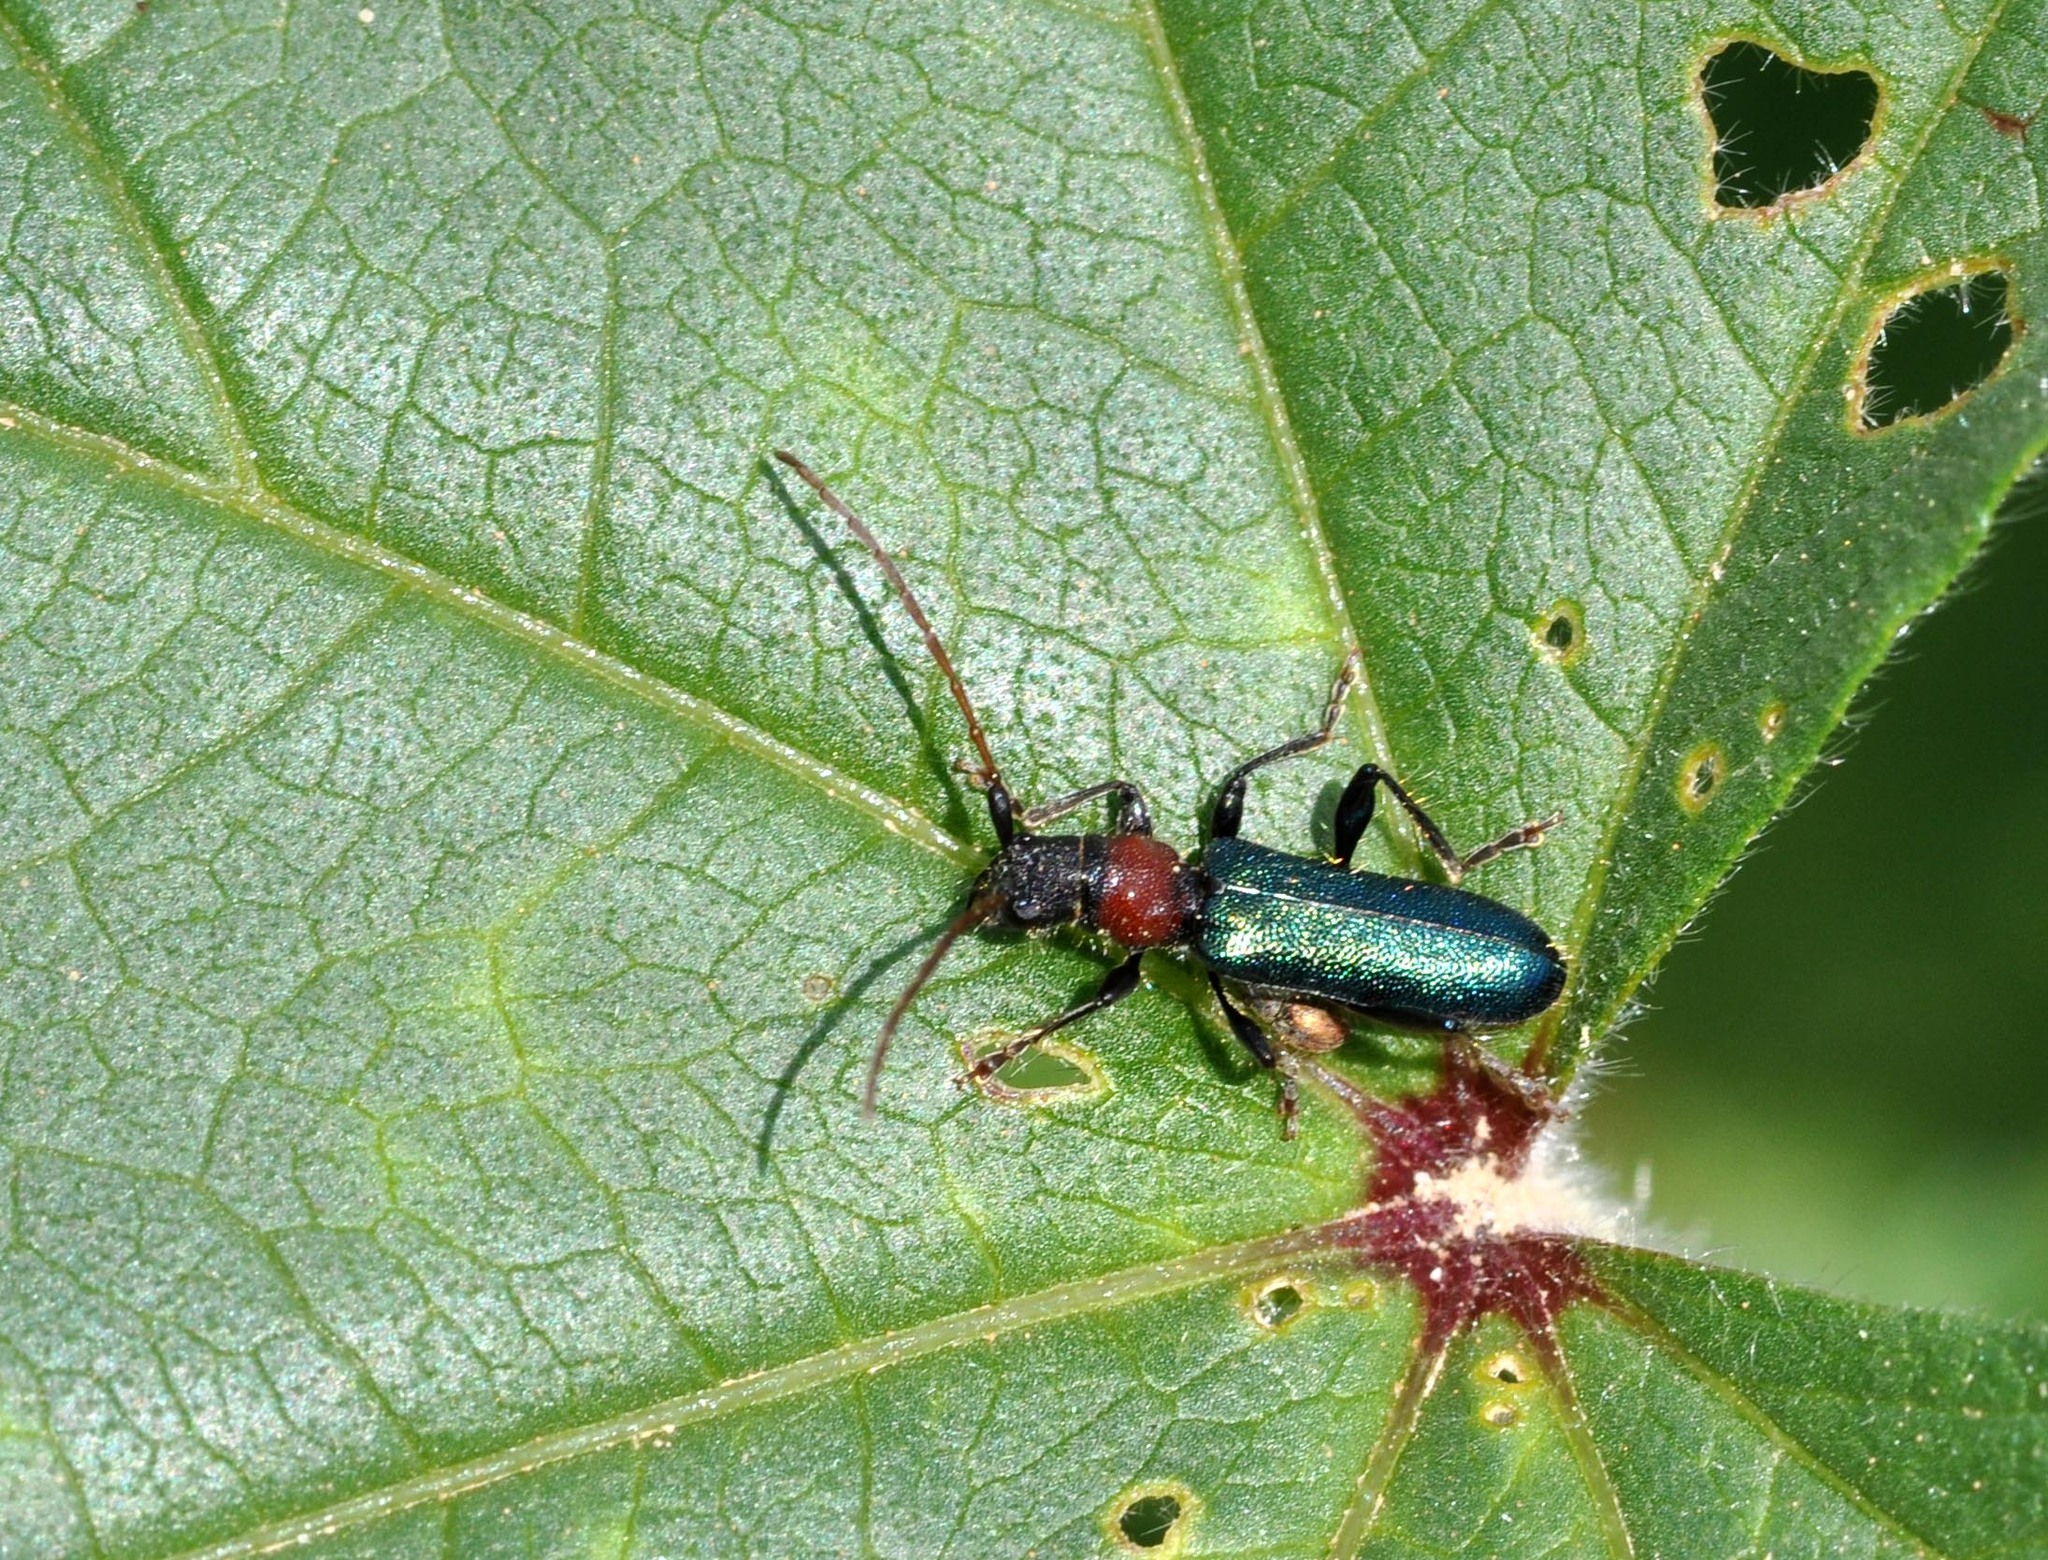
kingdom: Animalia
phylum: Arthropoda
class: Insecta
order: Coleoptera
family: Cerambycidae
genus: Certallum
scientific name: Certallum ebulinum
